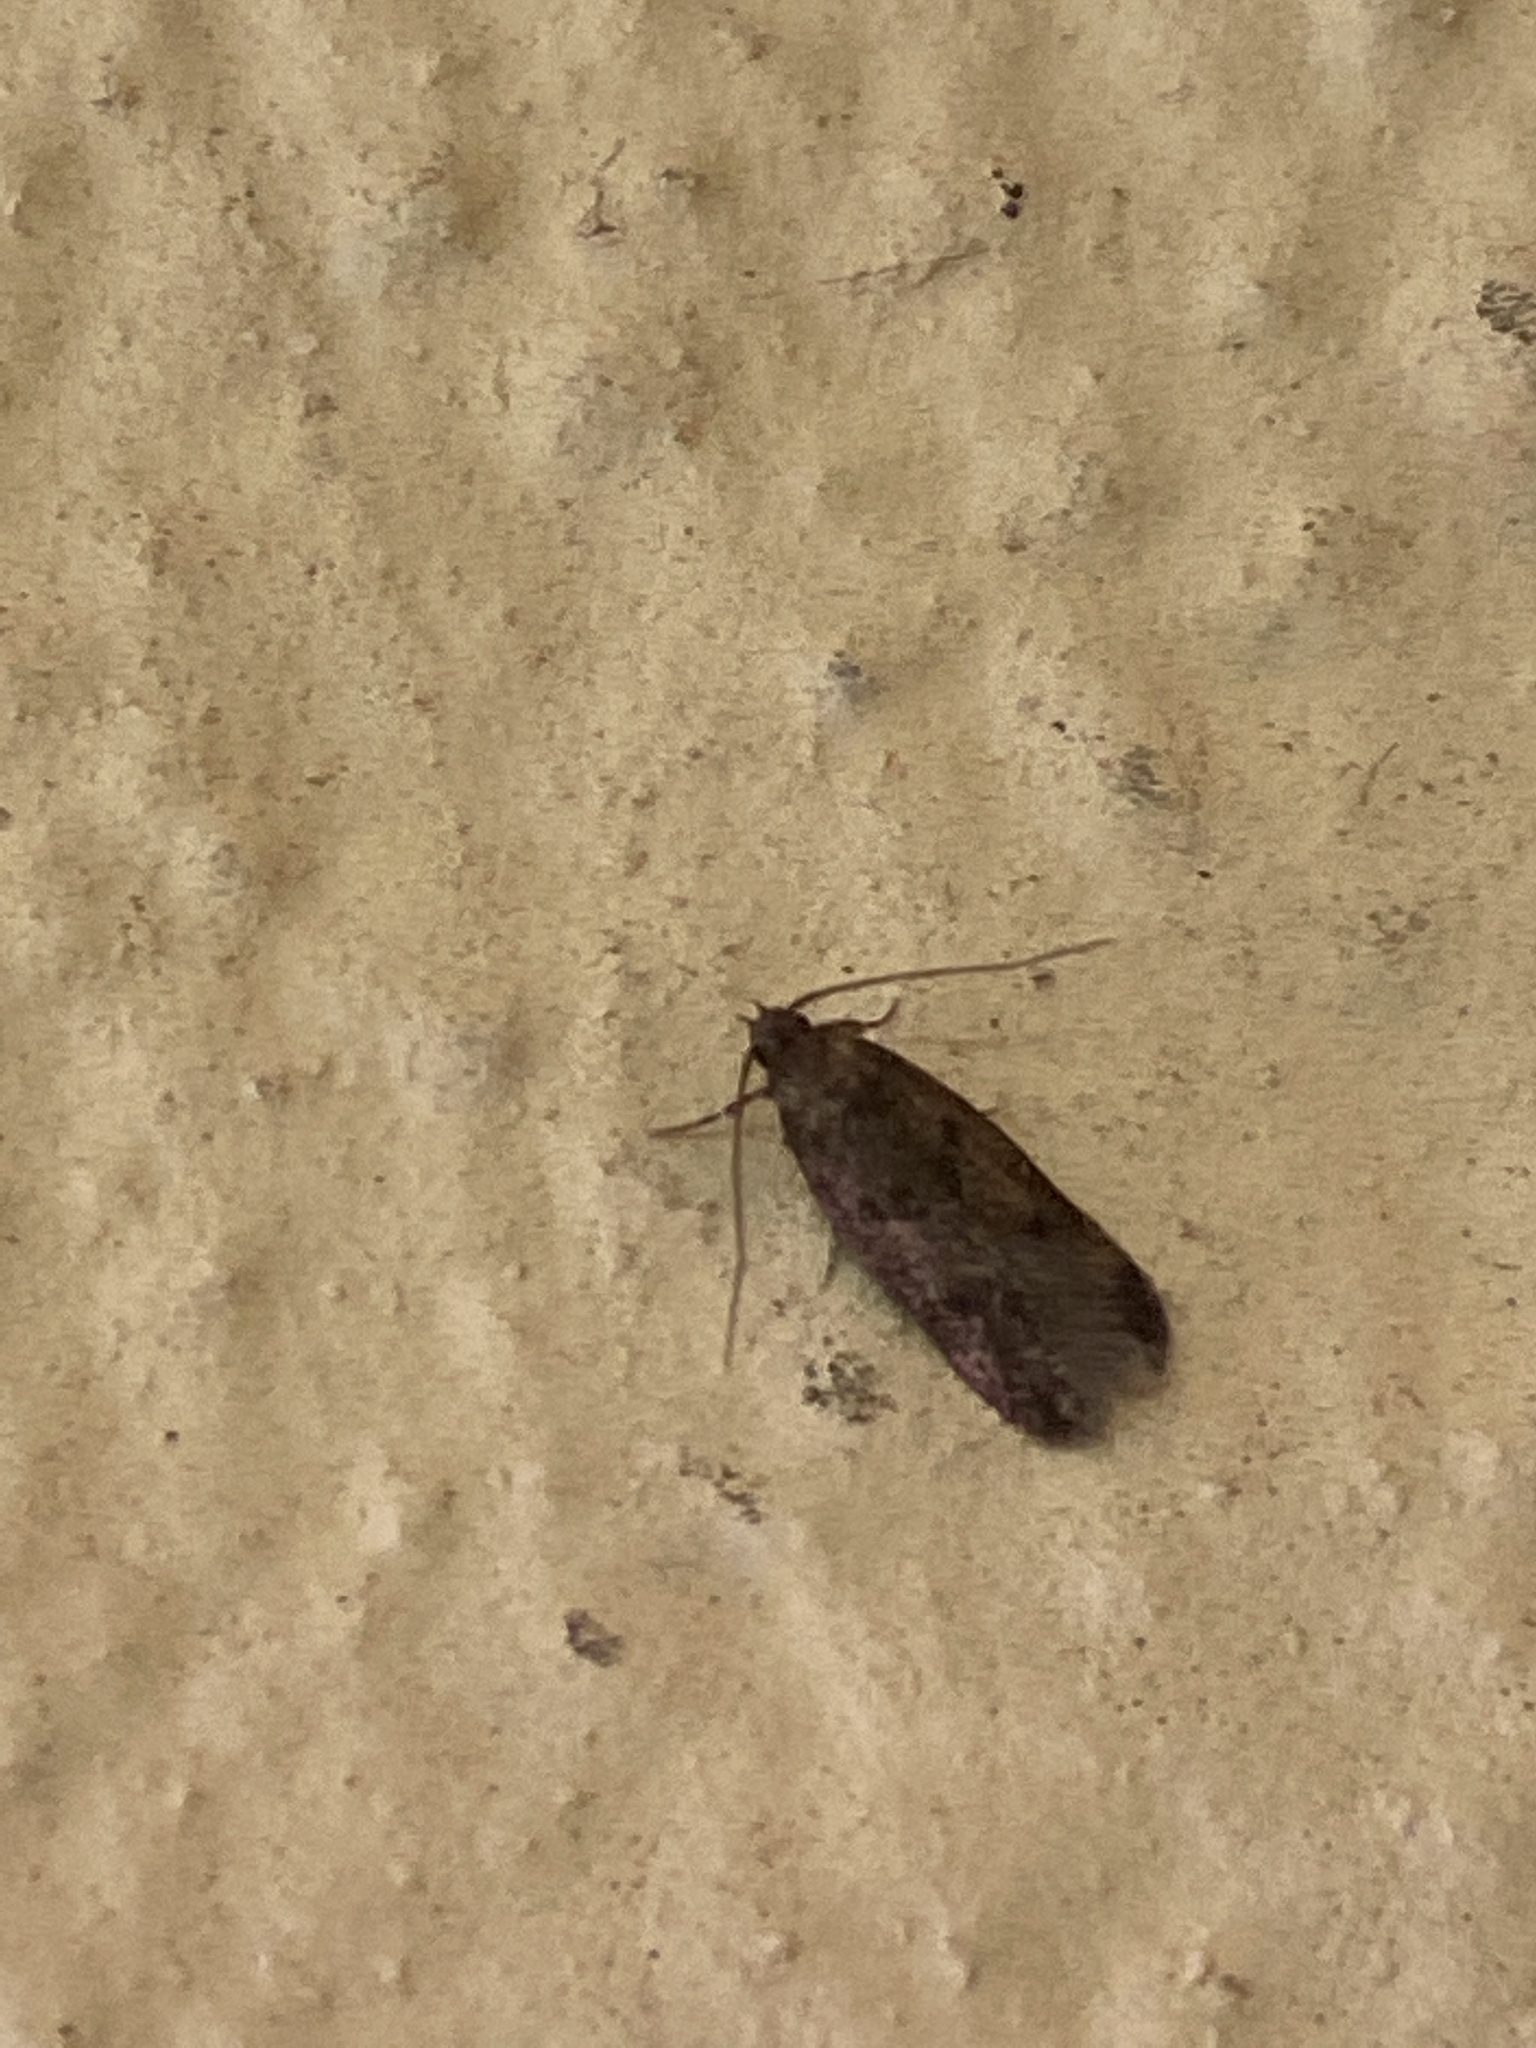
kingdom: Animalia
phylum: Arthropoda
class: Insecta
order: Lepidoptera
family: Oecophoridae
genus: Borkhausenia
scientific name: Borkhausenia fuscescens
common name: Small dingy tubic
